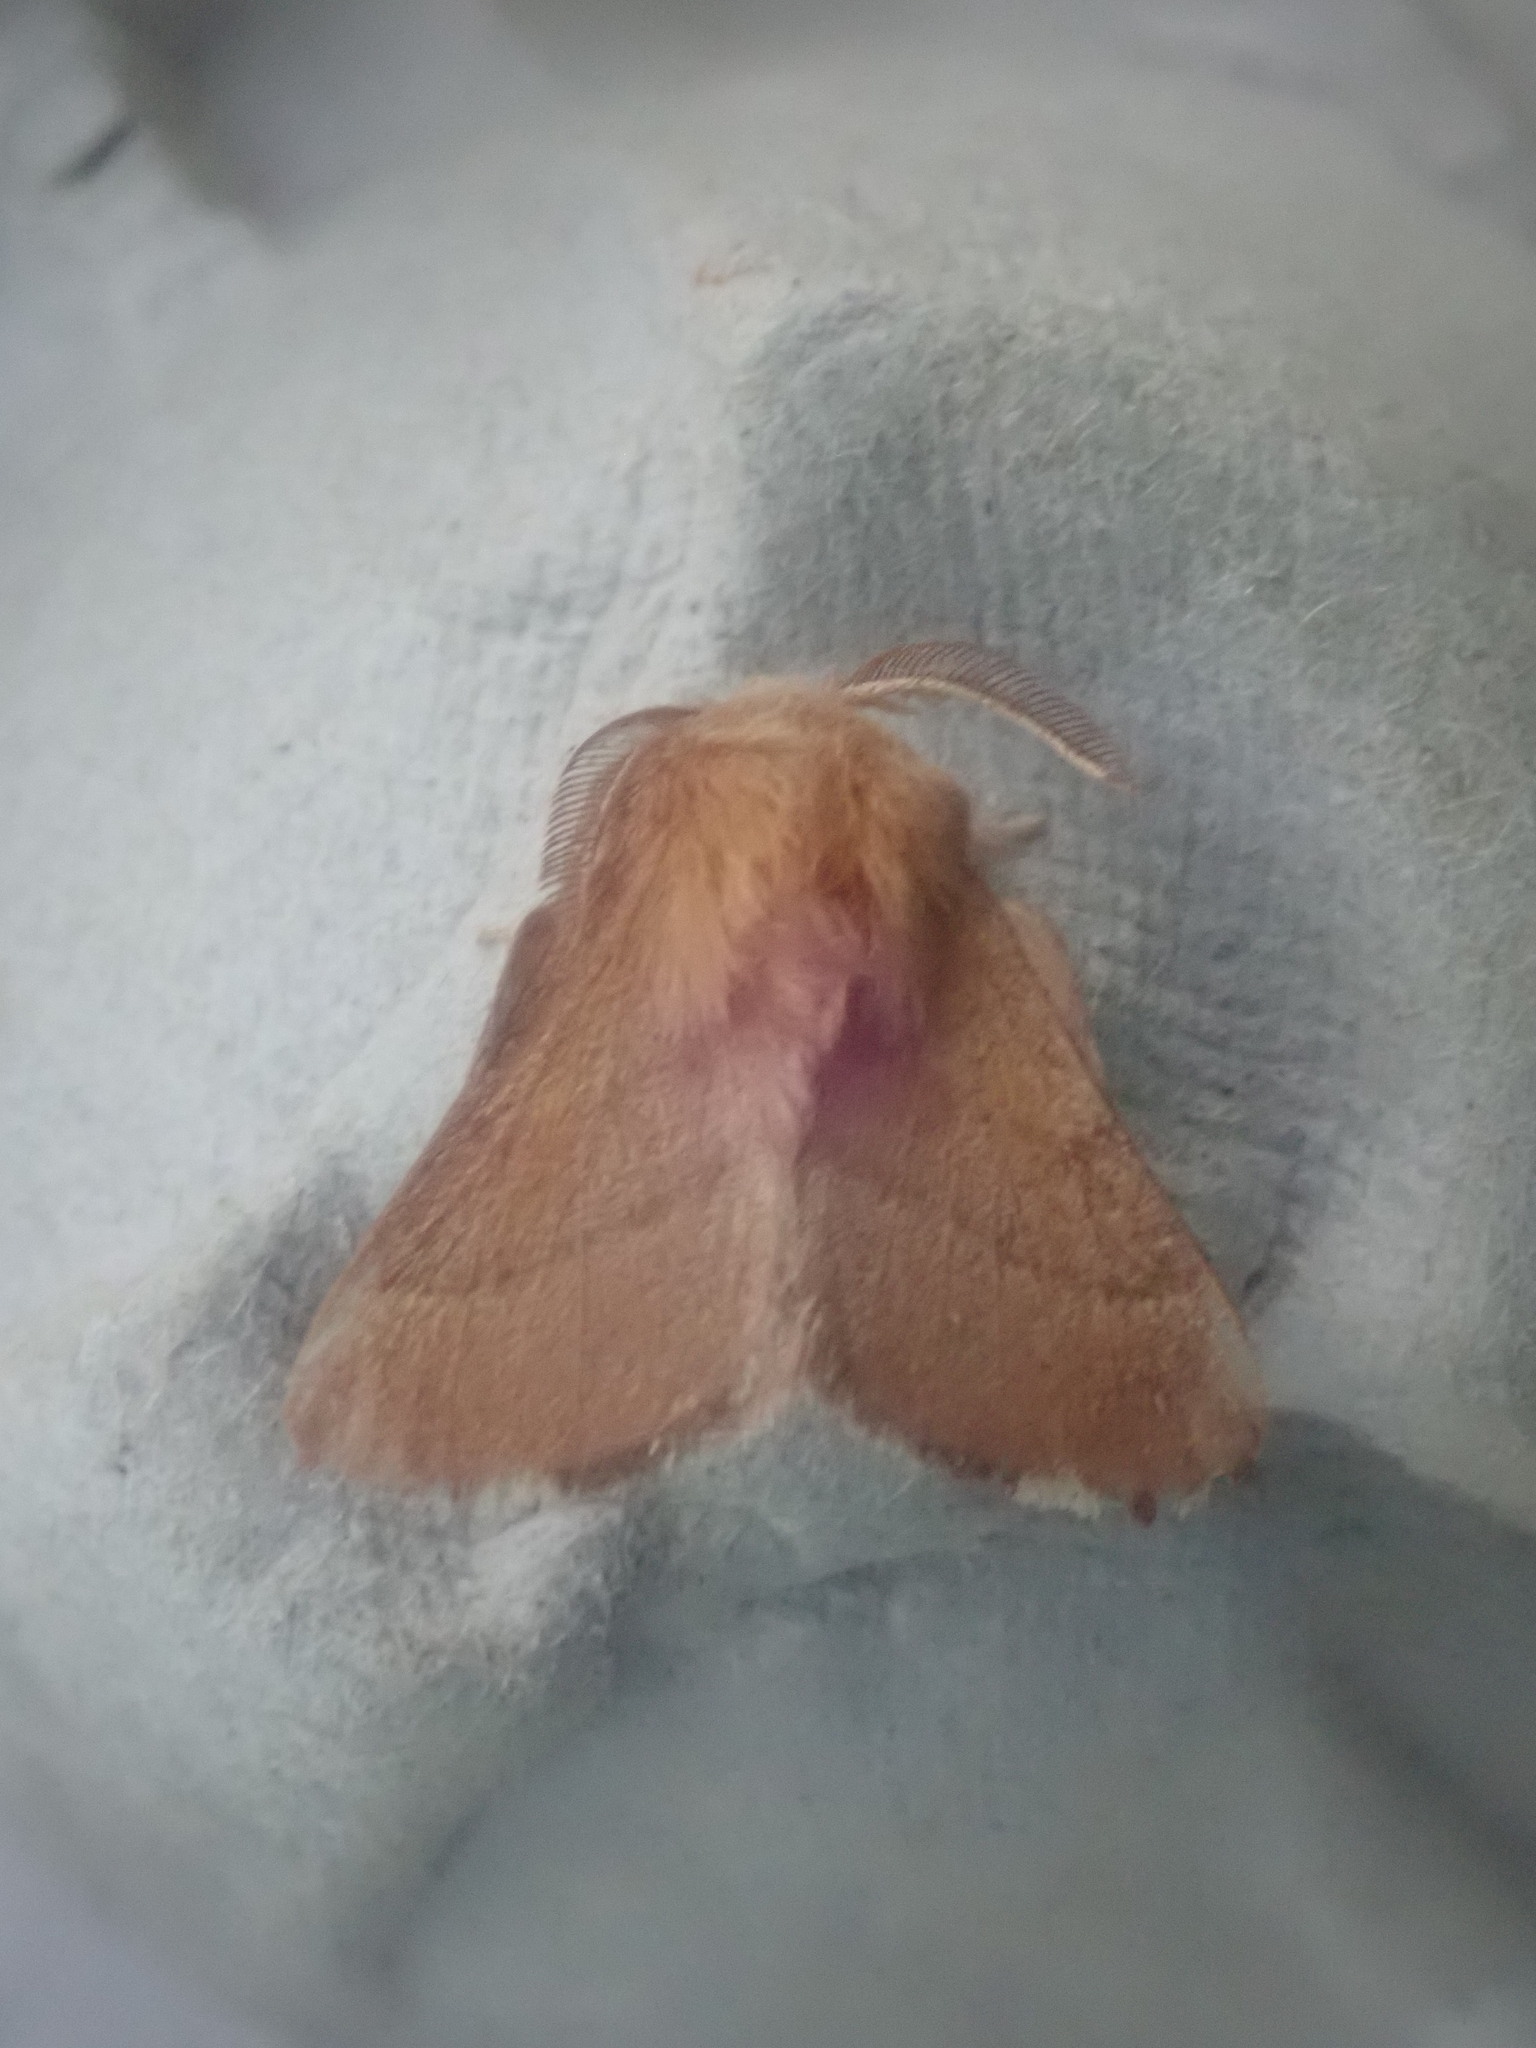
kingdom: Animalia
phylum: Arthropoda
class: Insecta
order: Lepidoptera
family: Lasiocampidae
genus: Malacosoma
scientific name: Malacosoma disstria
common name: Forest tent caterpillar
